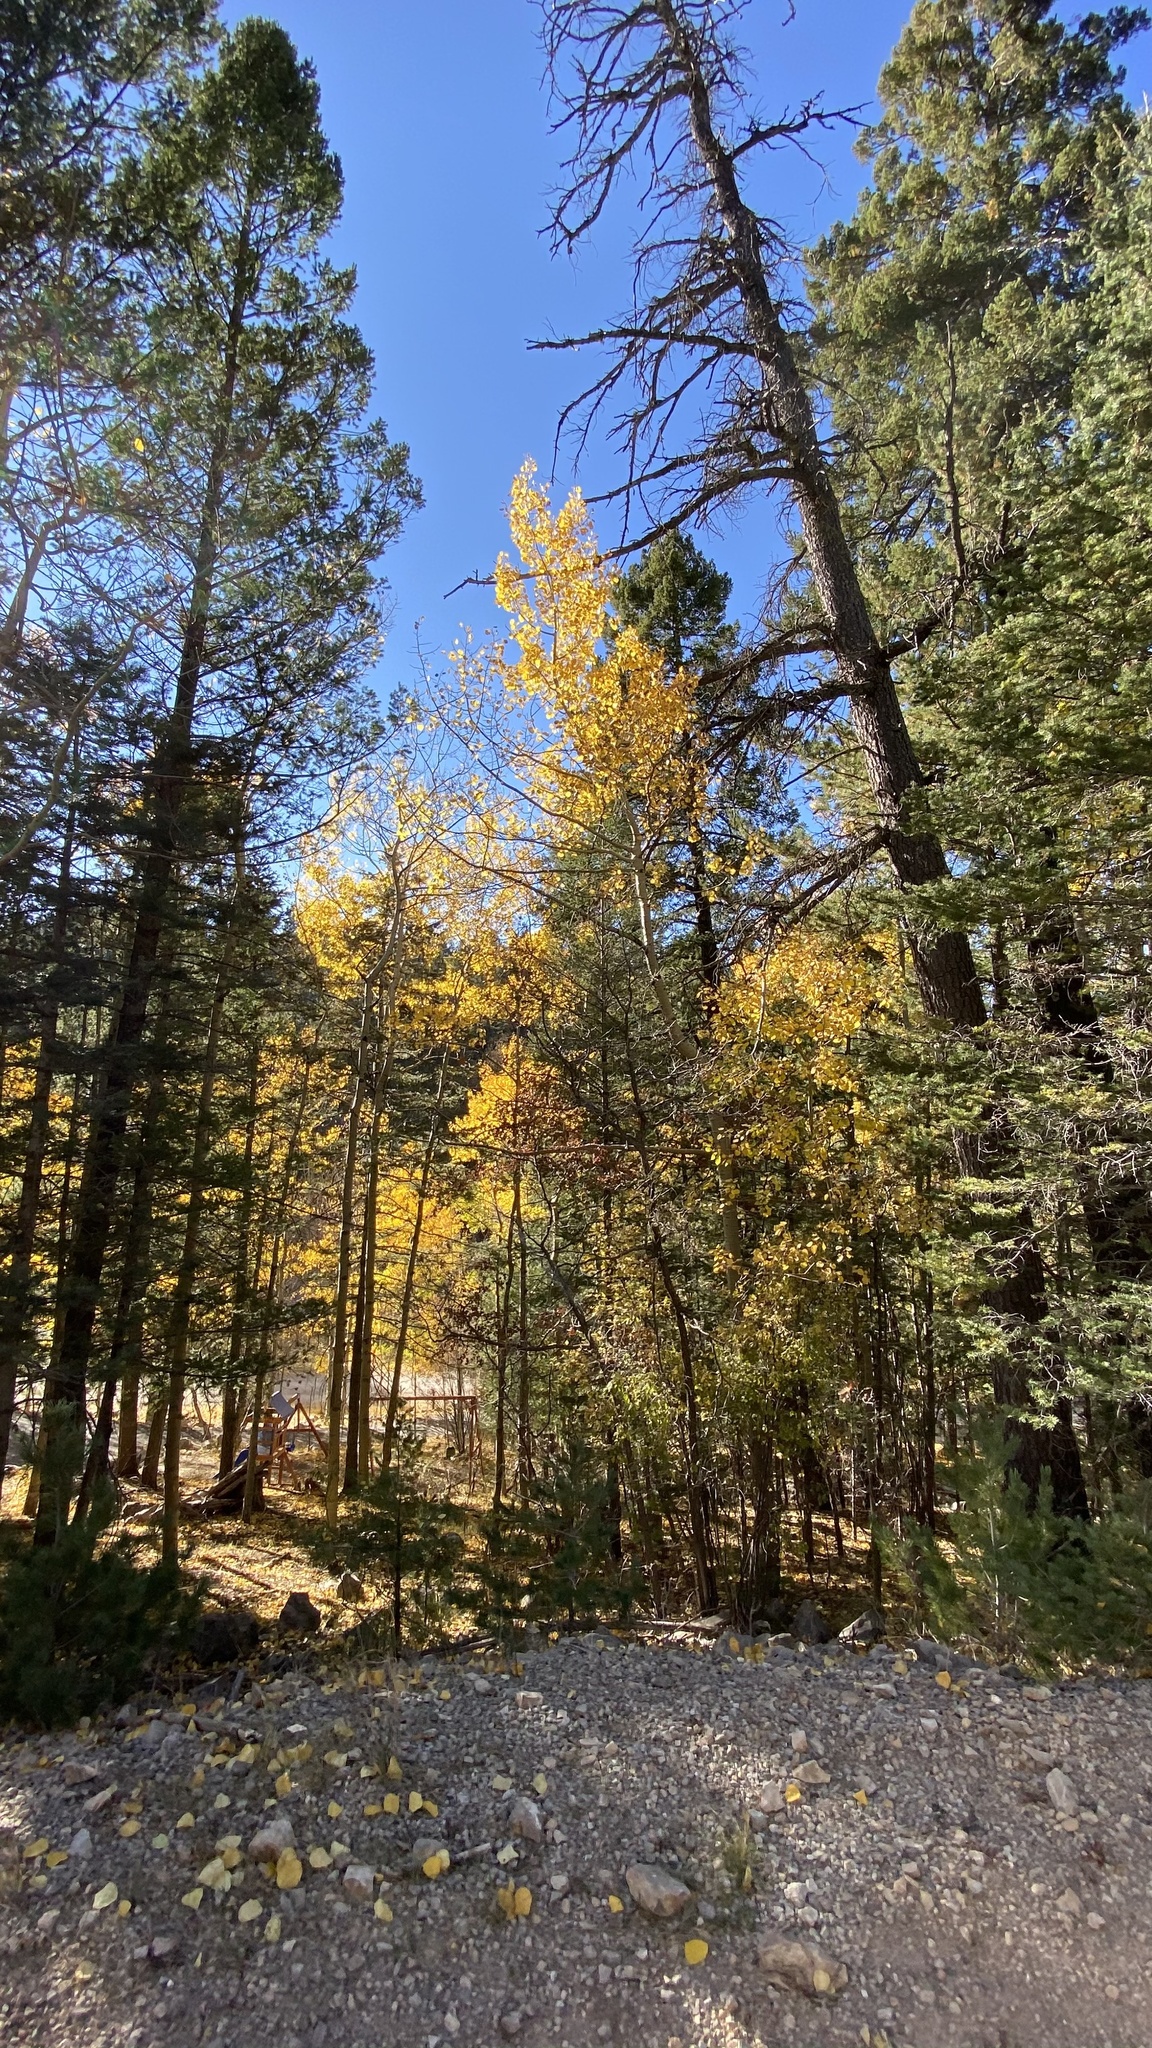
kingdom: Plantae
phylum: Tracheophyta
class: Magnoliopsida
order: Malpighiales
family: Salicaceae
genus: Populus
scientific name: Populus tremuloides
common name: Quaking aspen
